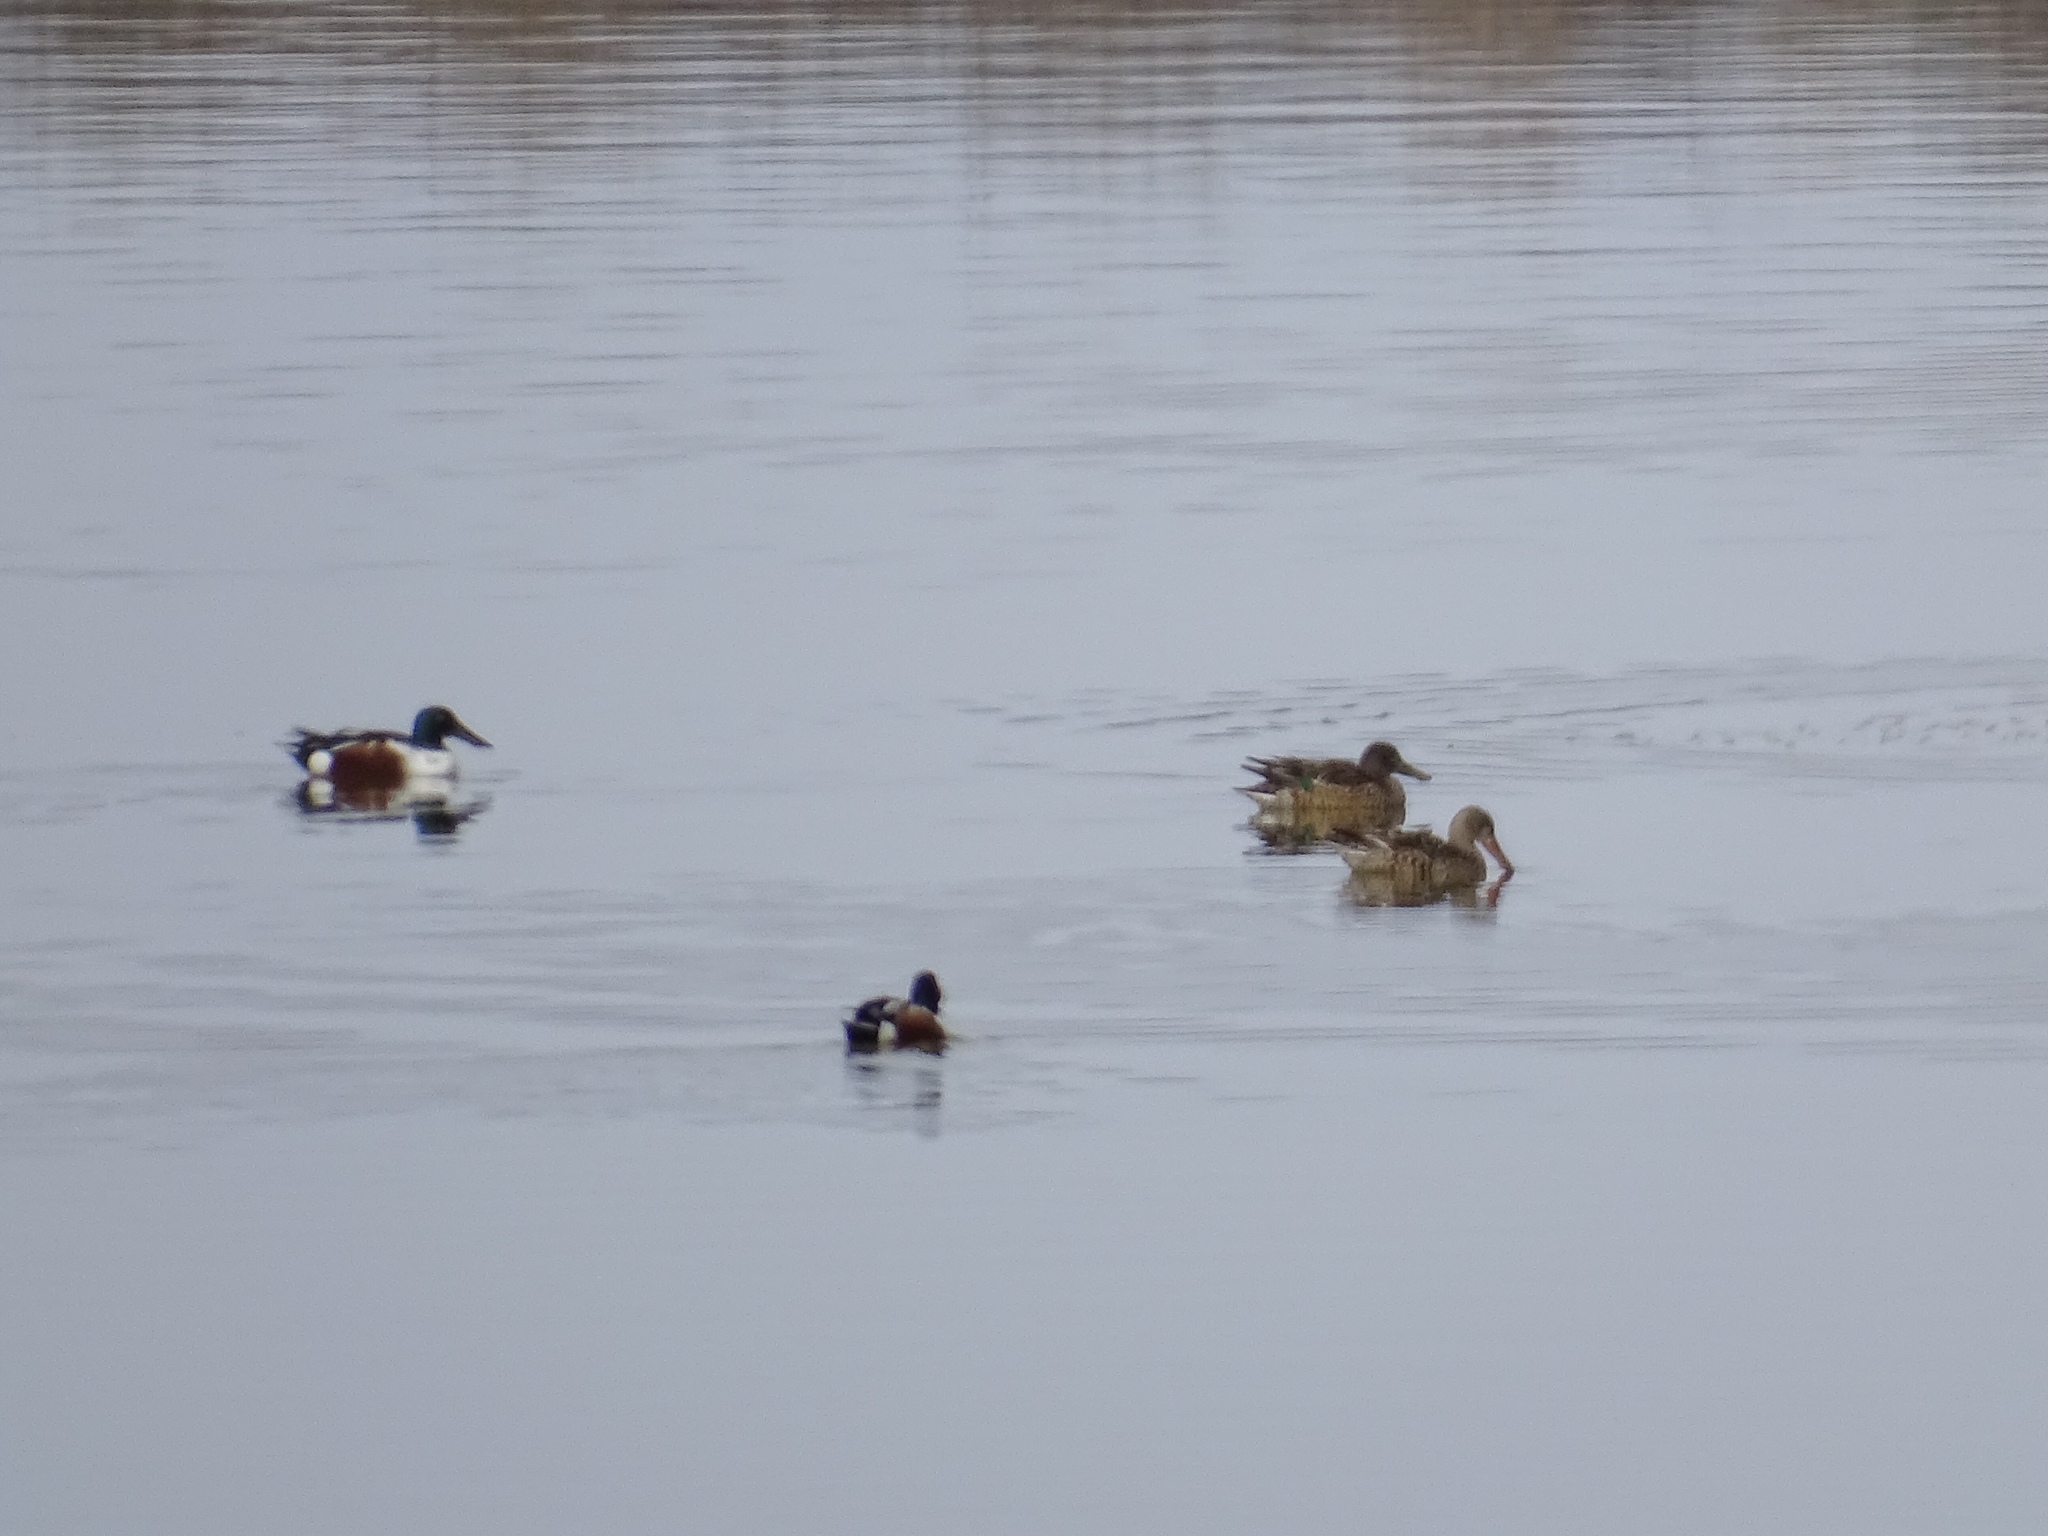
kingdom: Animalia
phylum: Chordata
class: Aves
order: Anseriformes
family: Anatidae
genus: Spatula
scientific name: Spatula clypeata
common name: Northern shoveler
